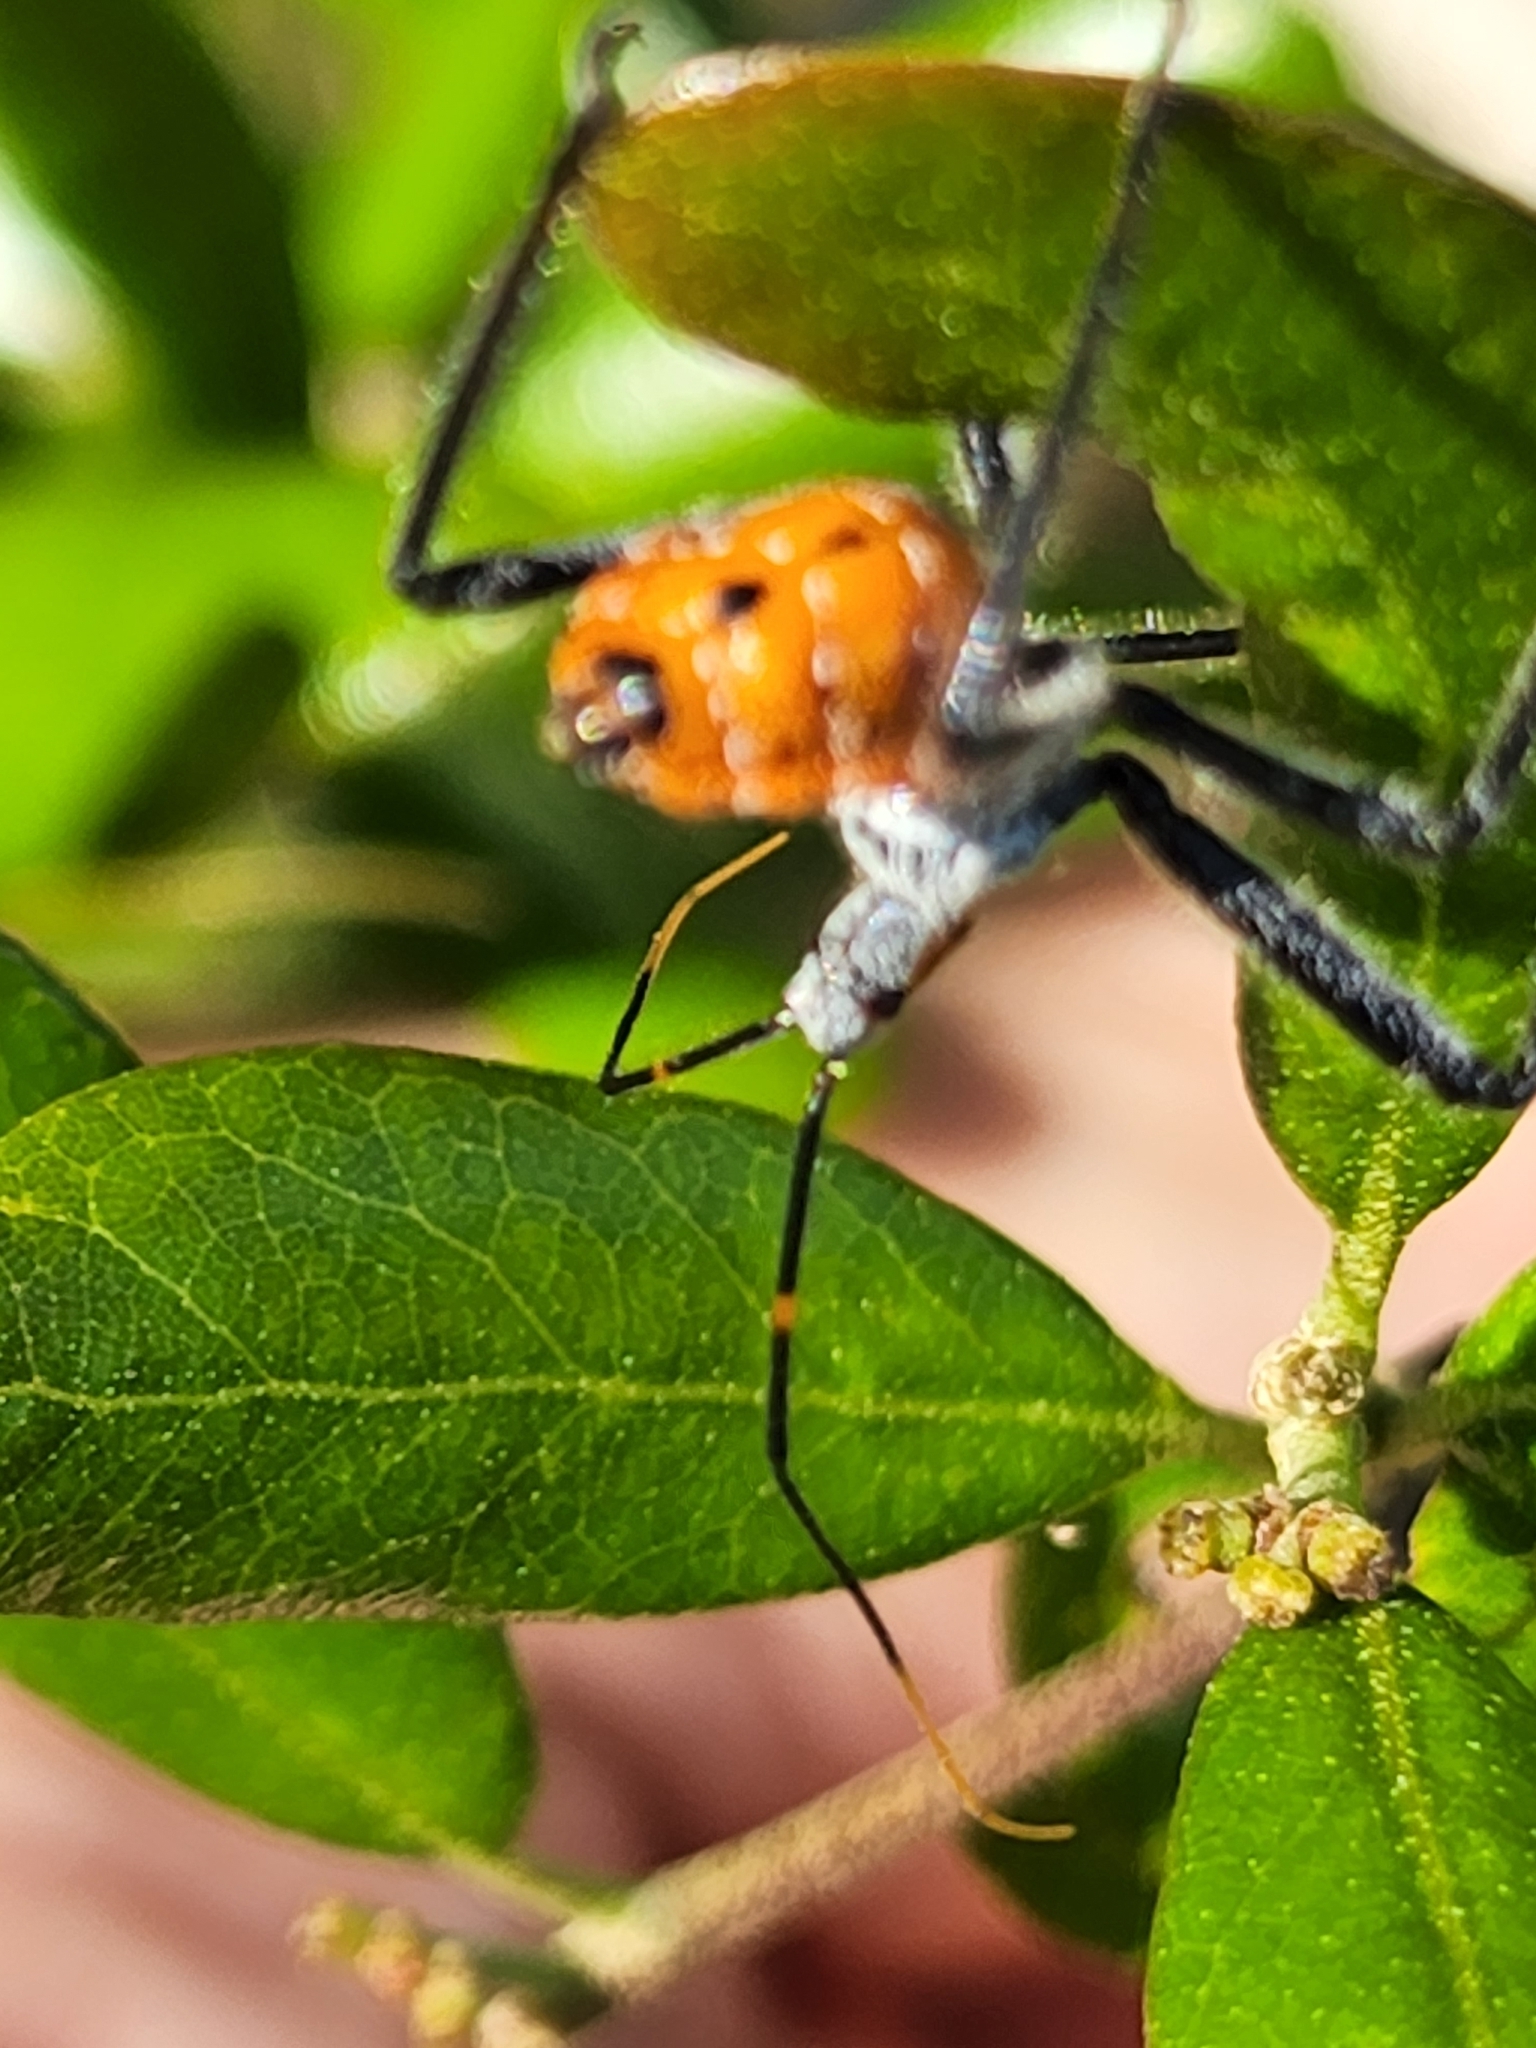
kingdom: Animalia
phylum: Arthropoda
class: Insecta
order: Hemiptera
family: Reduviidae
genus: Arilus
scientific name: Arilus cristatus
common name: North american wheel bug
